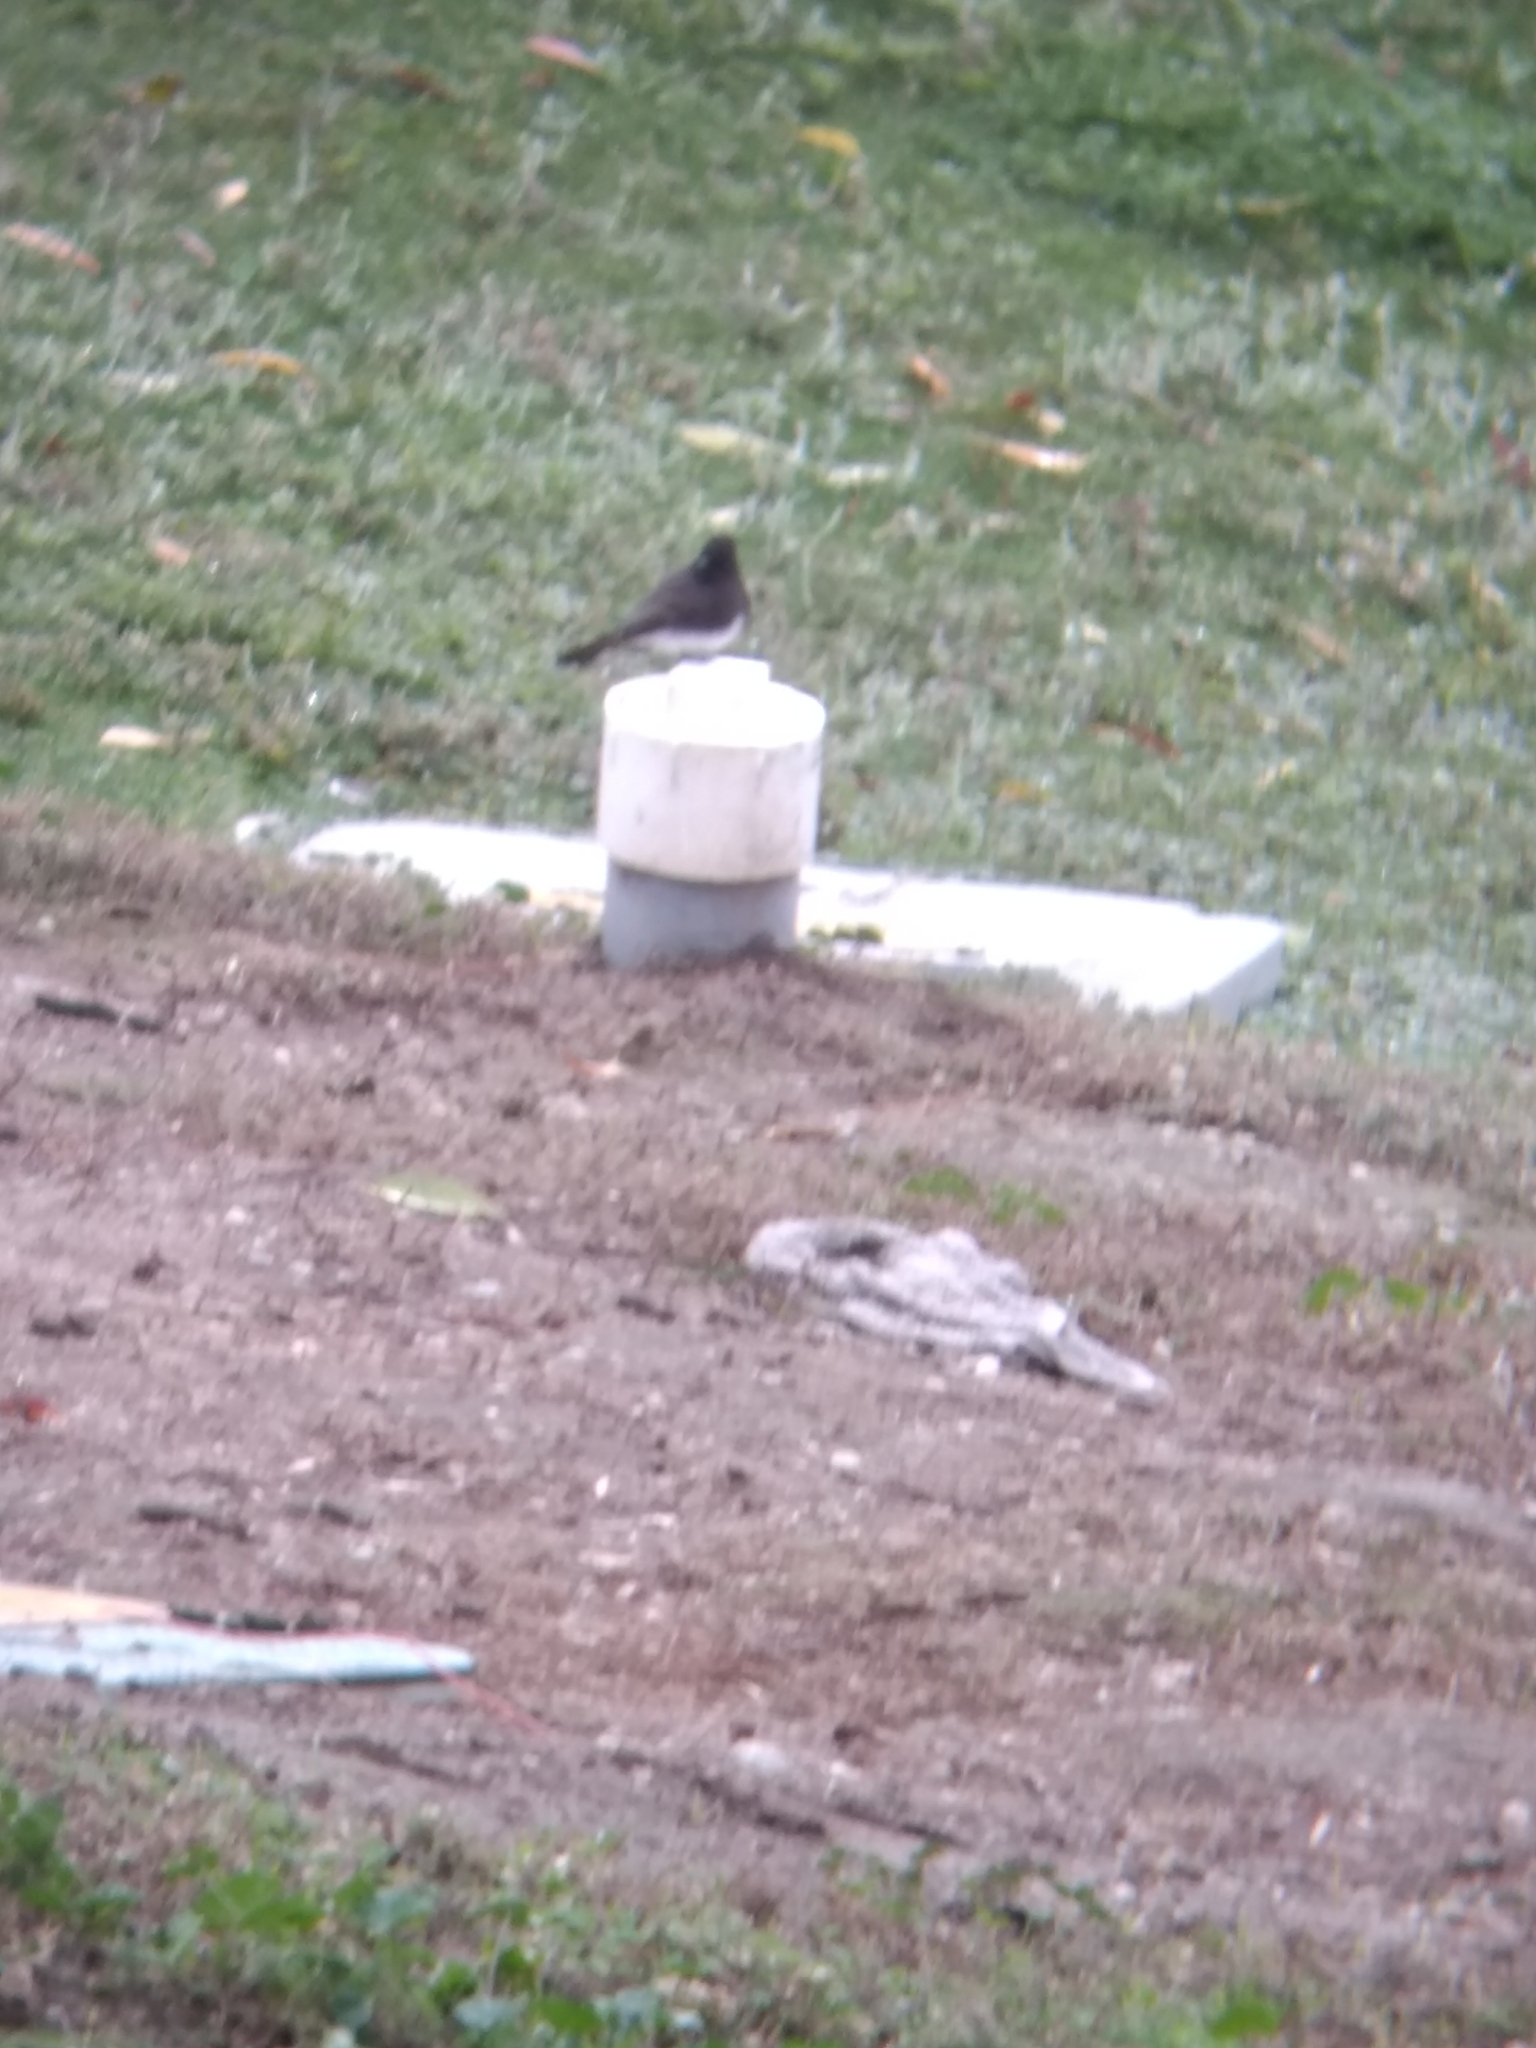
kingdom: Animalia
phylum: Chordata
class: Aves
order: Passeriformes
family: Tyrannidae
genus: Sayornis
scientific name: Sayornis nigricans
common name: Black phoebe
